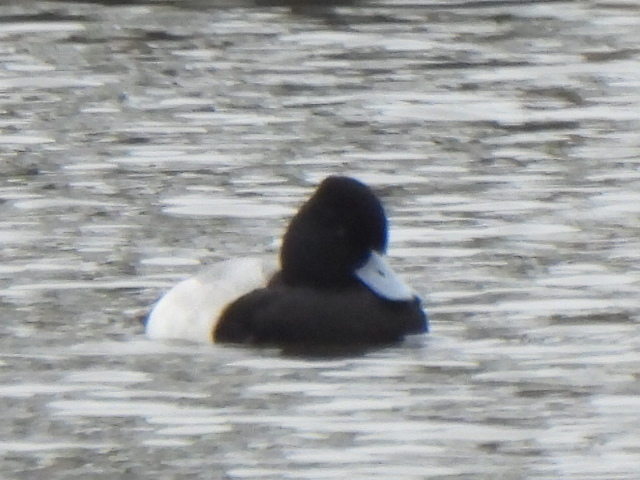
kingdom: Animalia
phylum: Chordata
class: Aves
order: Anseriformes
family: Anatidae
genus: Aythya
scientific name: Aythya affinis
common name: Lesser scaup
